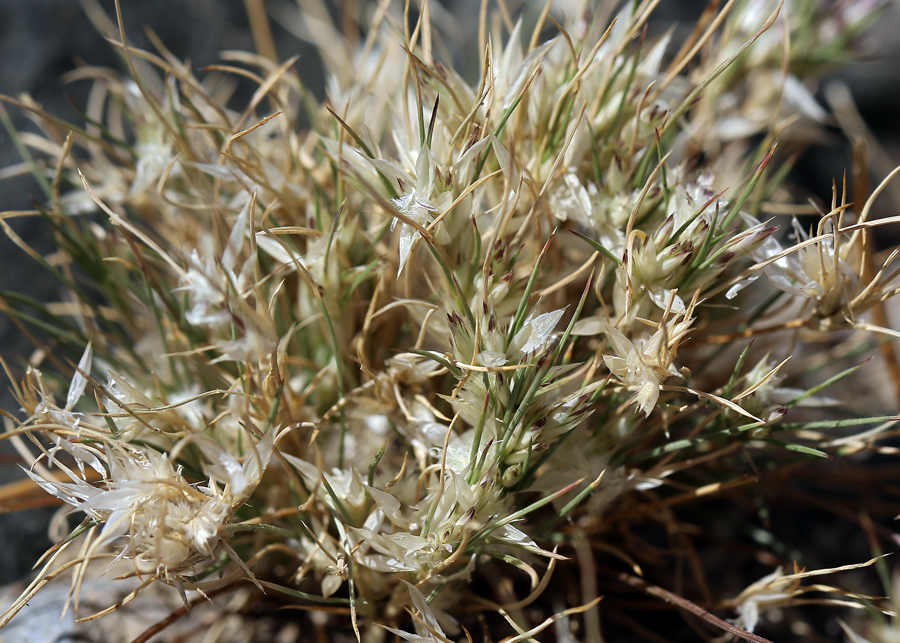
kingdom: Plantae
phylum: Tracheophyta
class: Liliopsida
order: Poales
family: Poaceae
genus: Dasyochloa
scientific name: Dasyochloa pulchella
